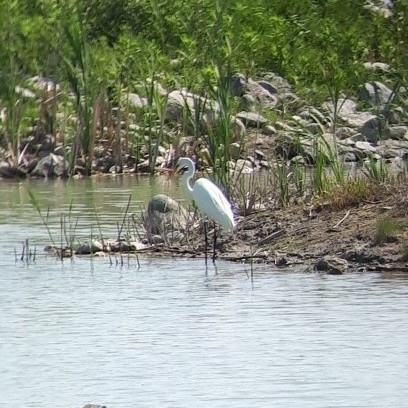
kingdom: Animalia
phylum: Chordata
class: Aves
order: Pelecaniformes
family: Ardeidae
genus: Ardea
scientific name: Ardea alba
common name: Great egret
